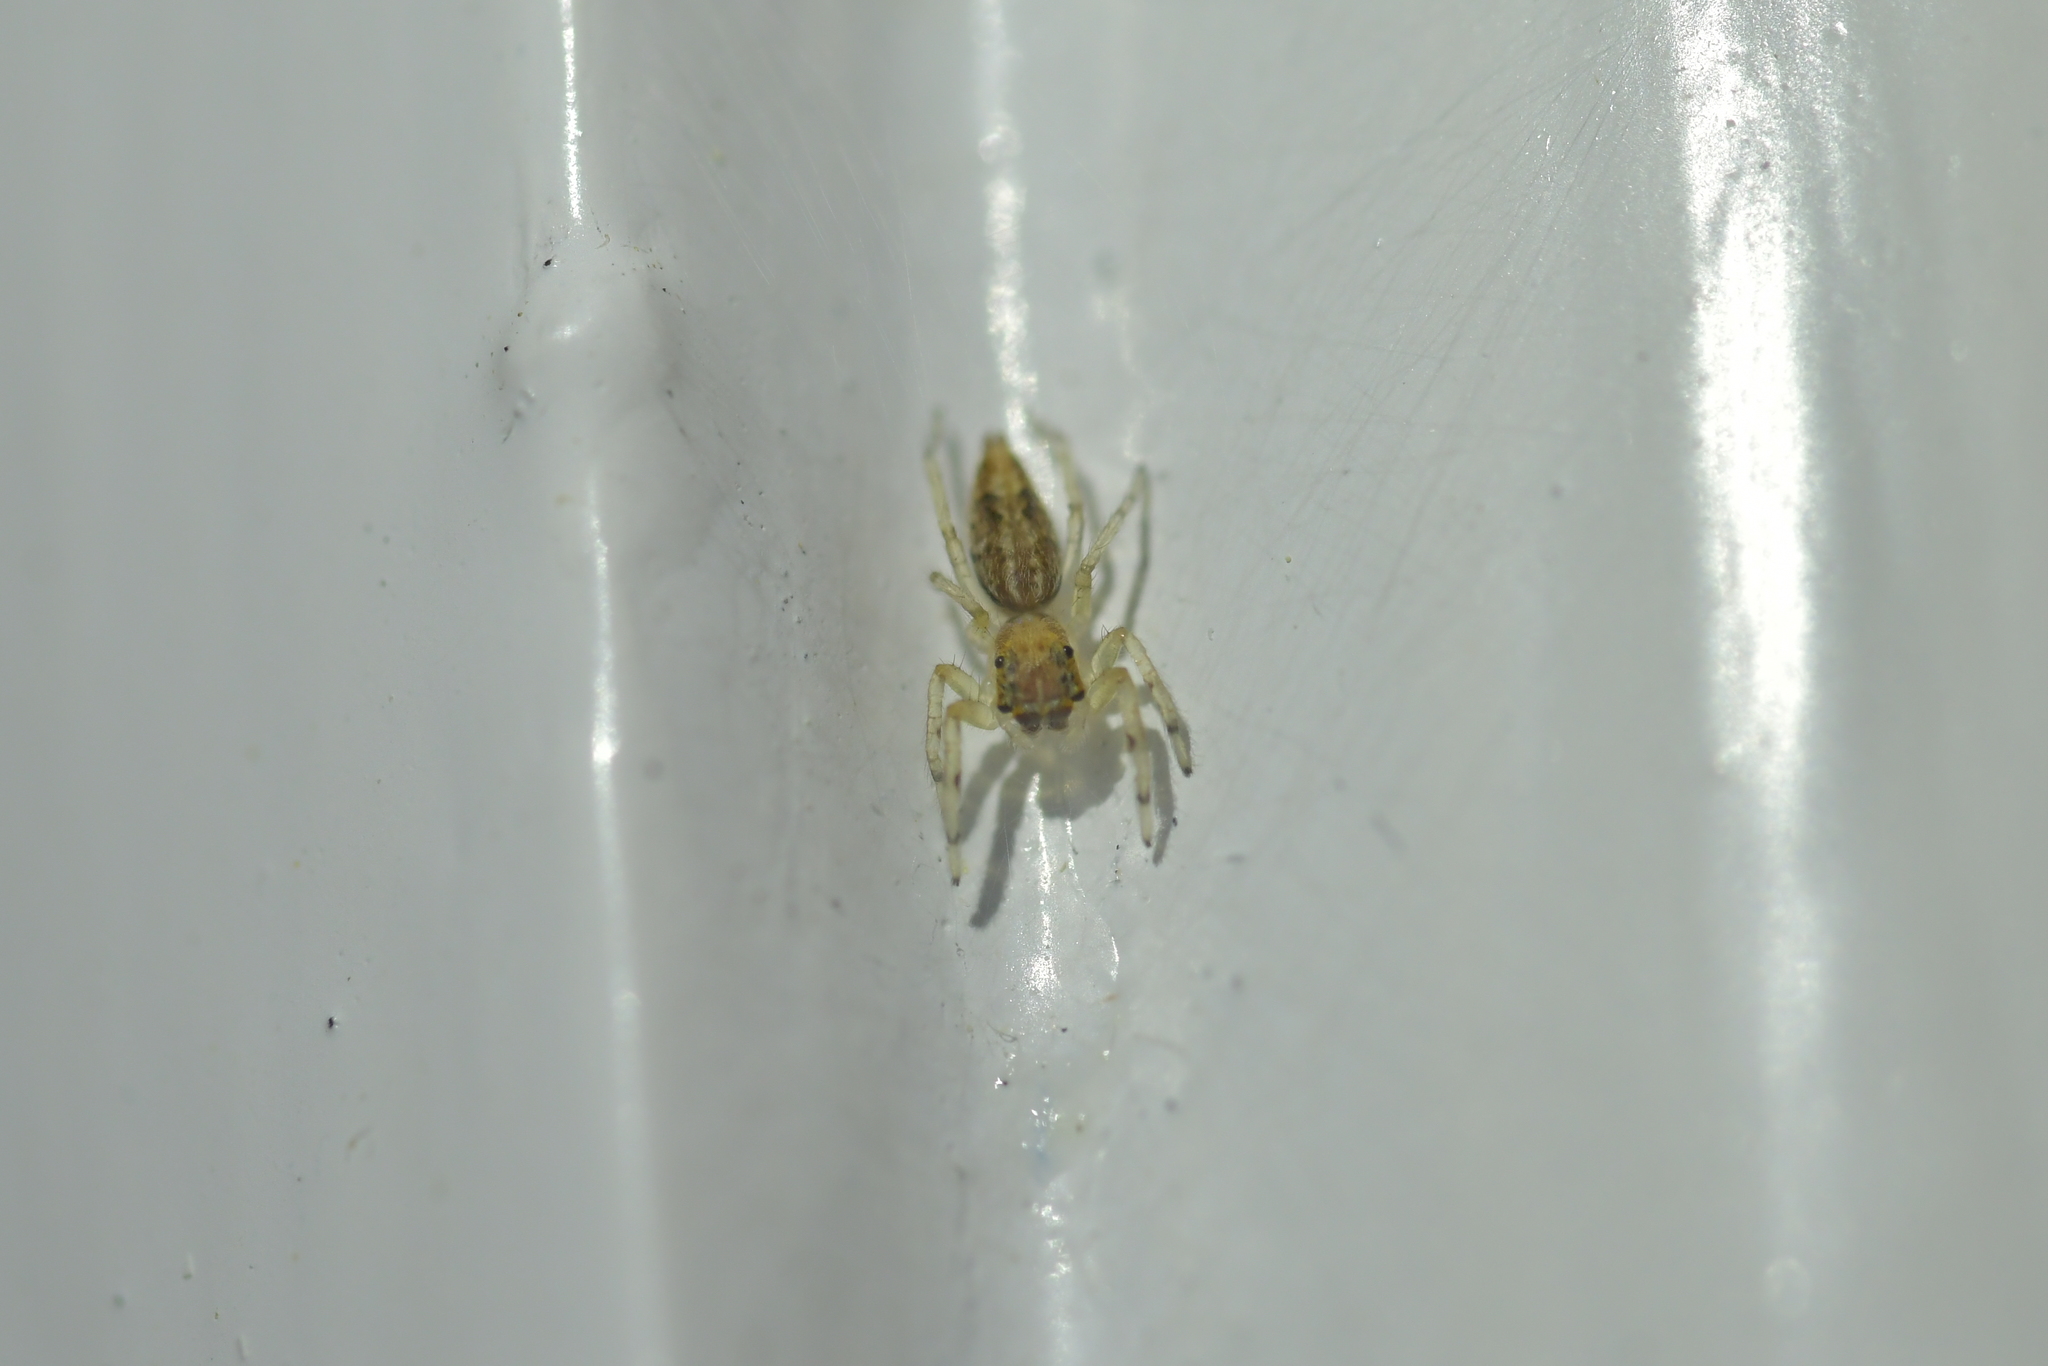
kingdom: Animalia
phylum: Arthropoda
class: Arachnida
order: Araneae
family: Salticidae
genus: Helpis
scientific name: Helpis minitabunda
